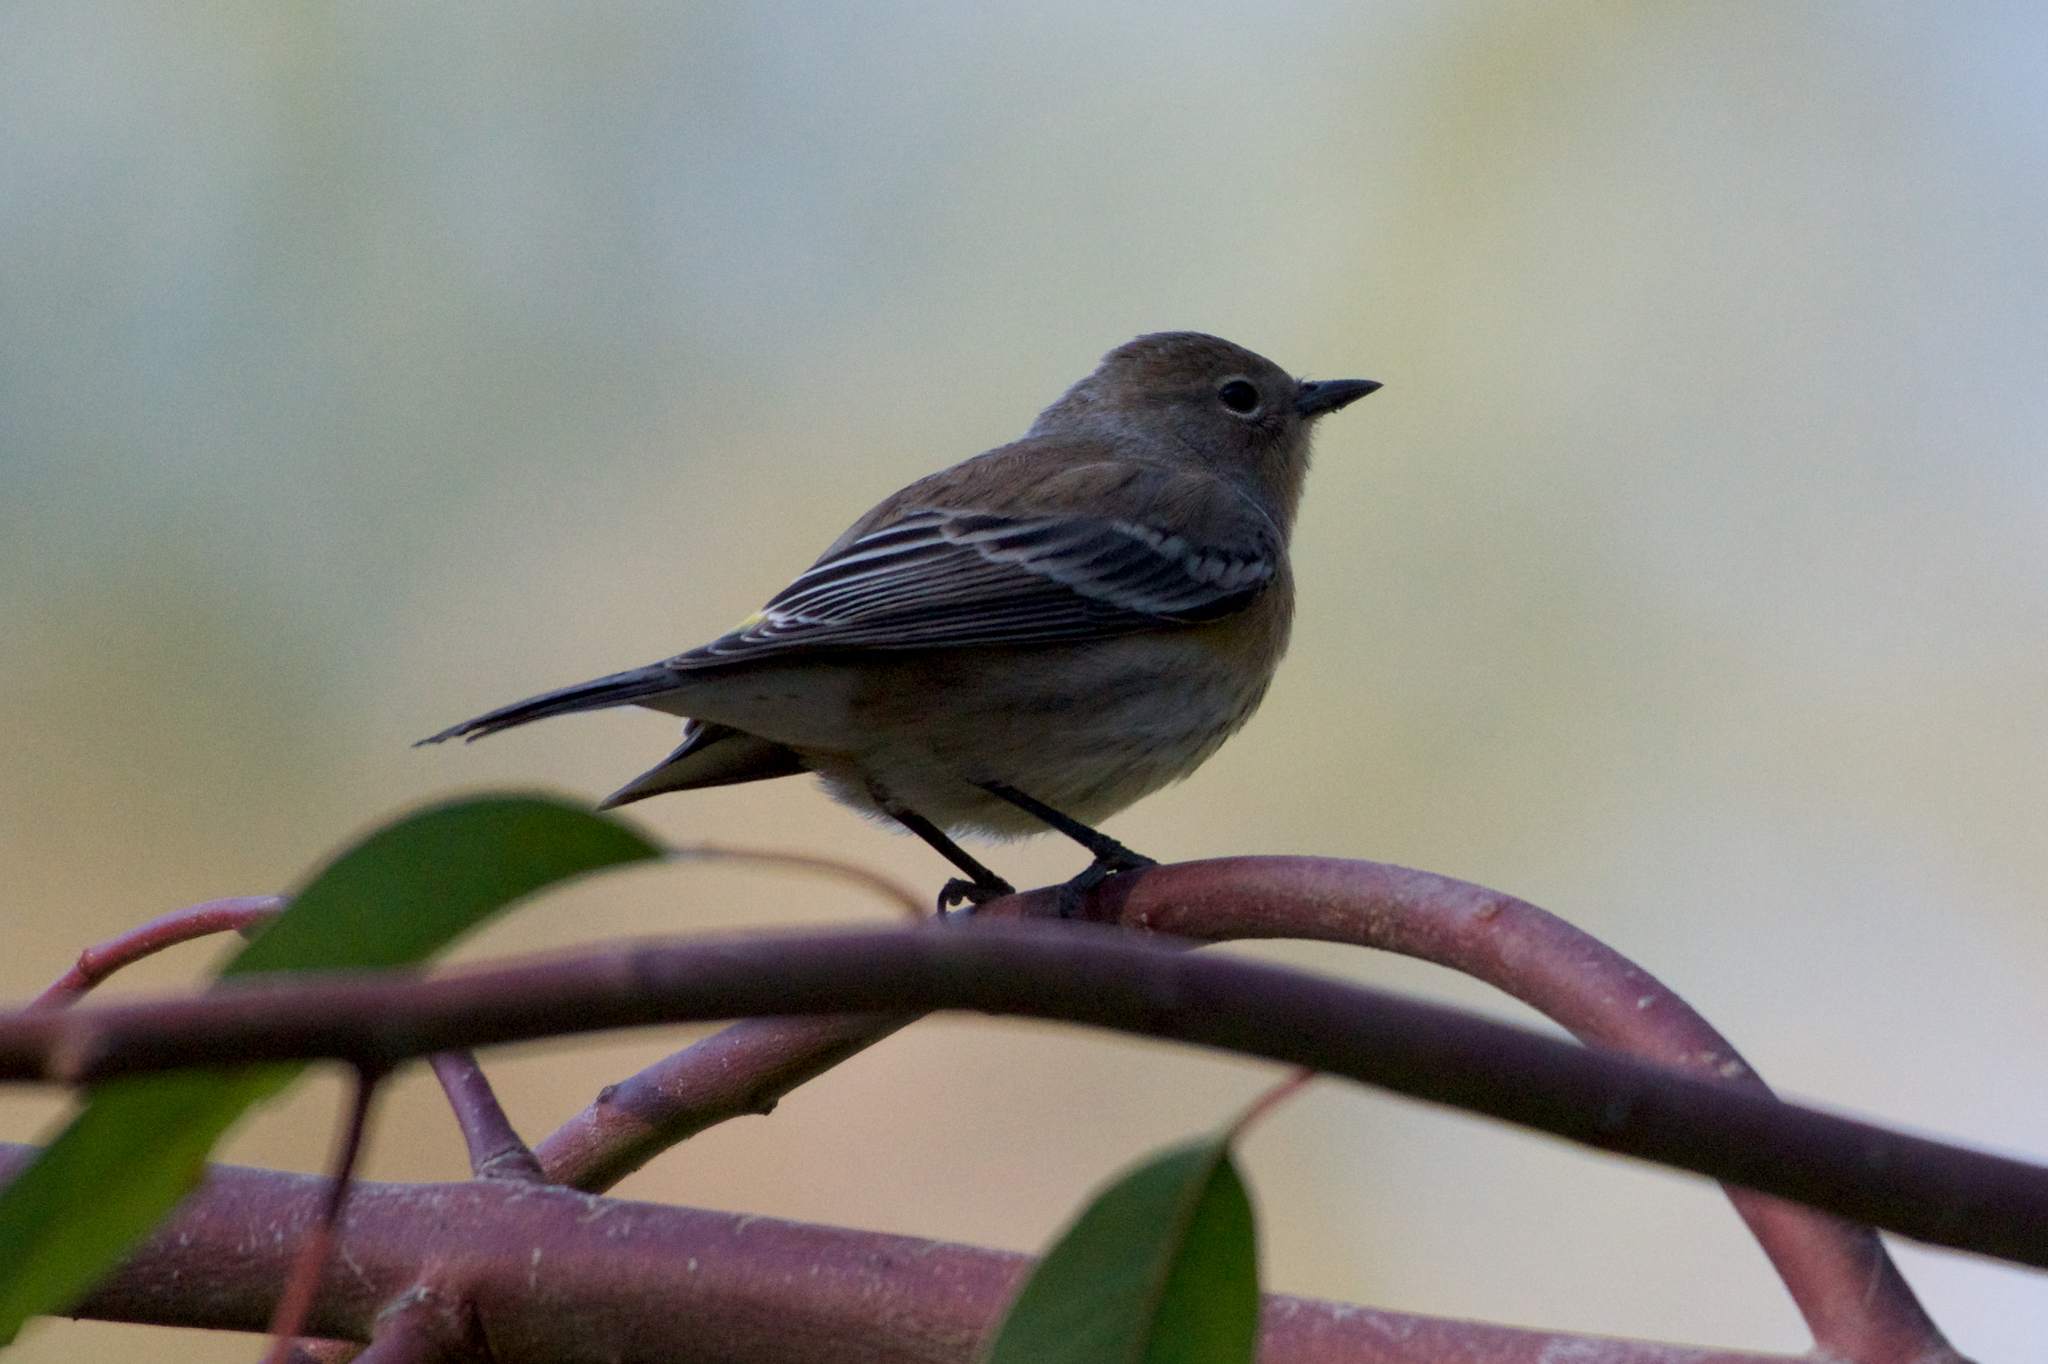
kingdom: Animalia
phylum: Chordata
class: Aves
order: Passeriformes
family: Parulidae
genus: Setophaga
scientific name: Setophaga coronata
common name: Myrtle warbler
